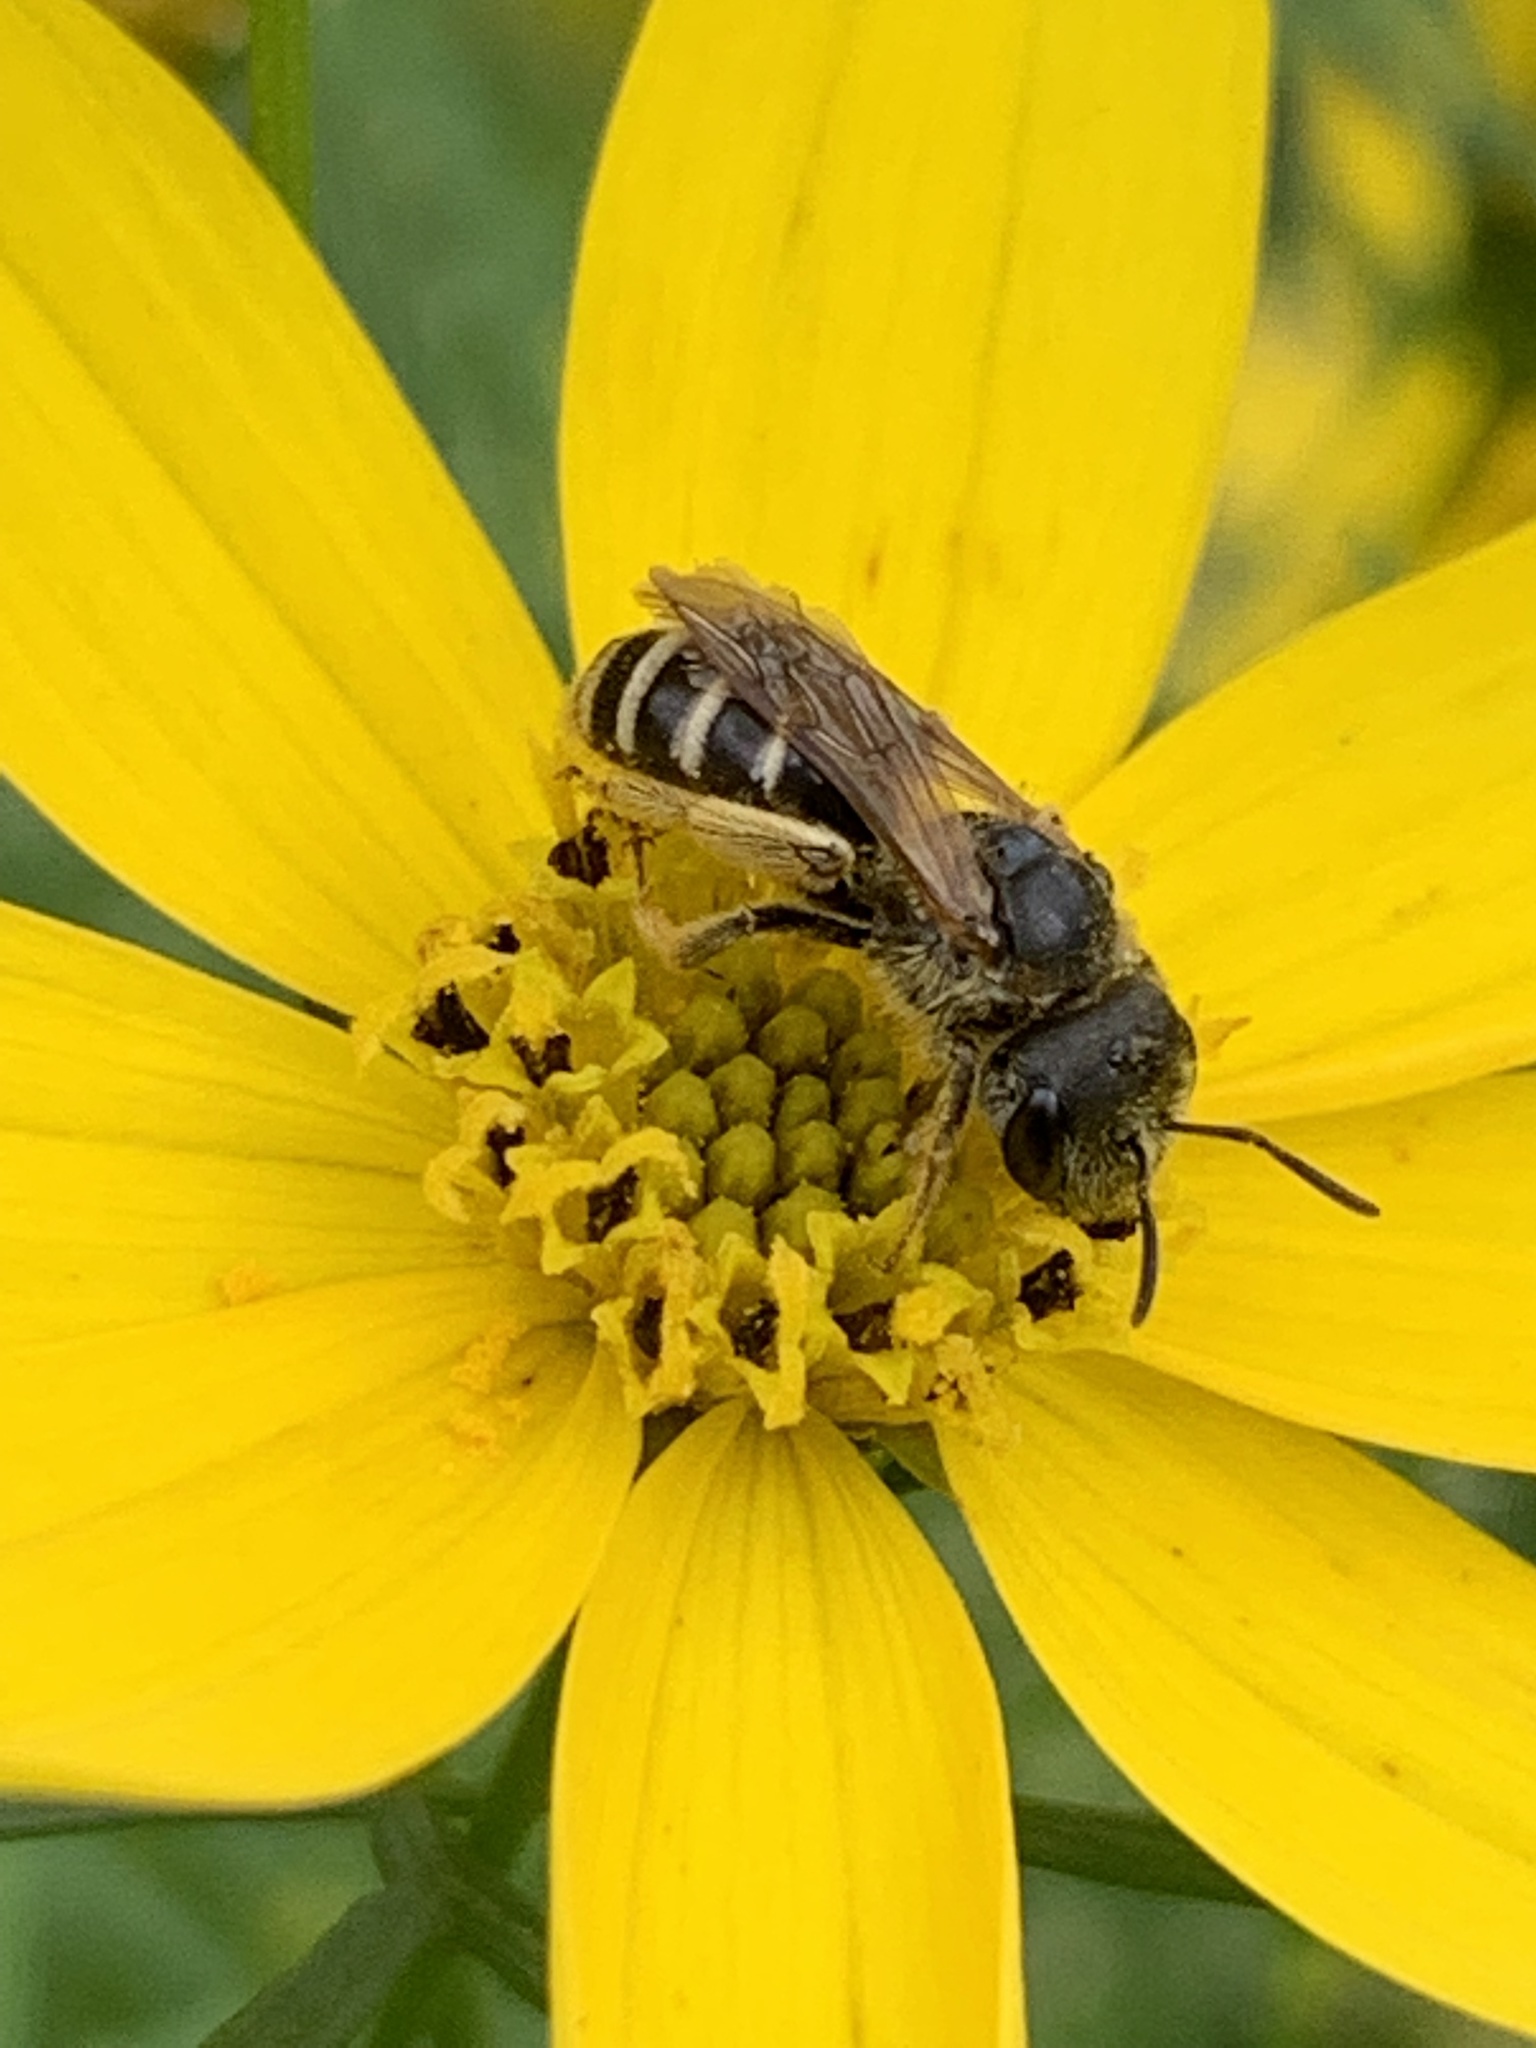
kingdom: Animalia
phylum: Arthropoda
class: Insecta
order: Hymenoptera
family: Halictidae
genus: Halictus
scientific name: Halictus ligatus
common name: Ligated furrow bee
